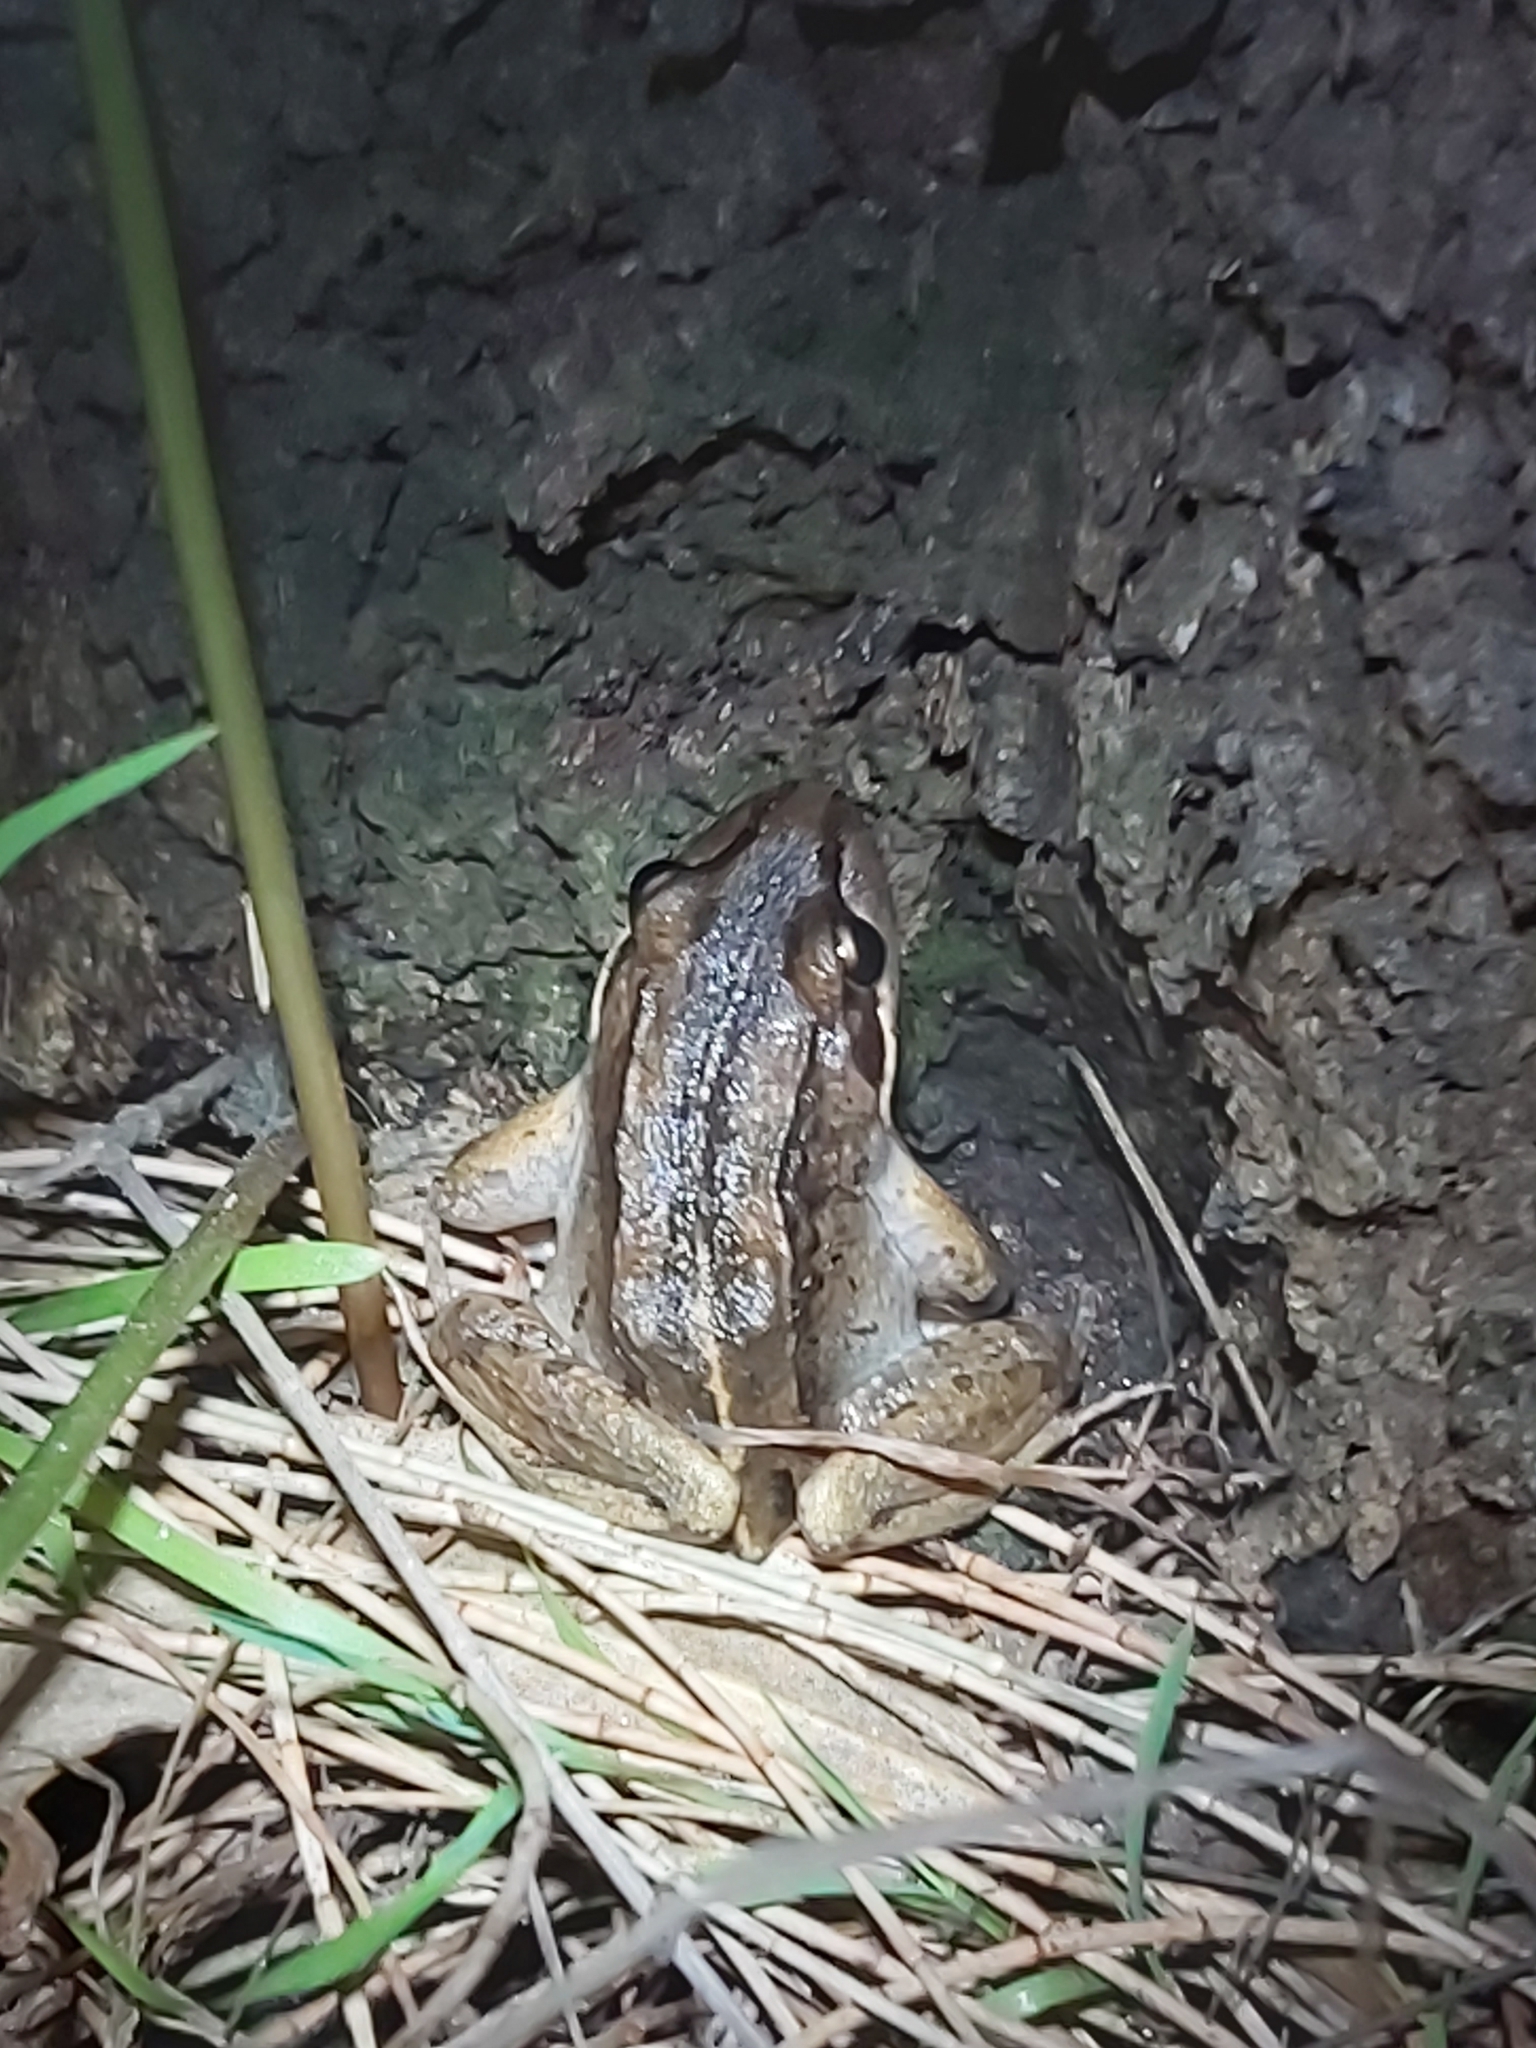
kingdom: Animalia
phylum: Chordata
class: Amphibia
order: Anura
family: Limnodynastidae
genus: Limnodynastes
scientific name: Limnodynastes peronii
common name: Brown frog
